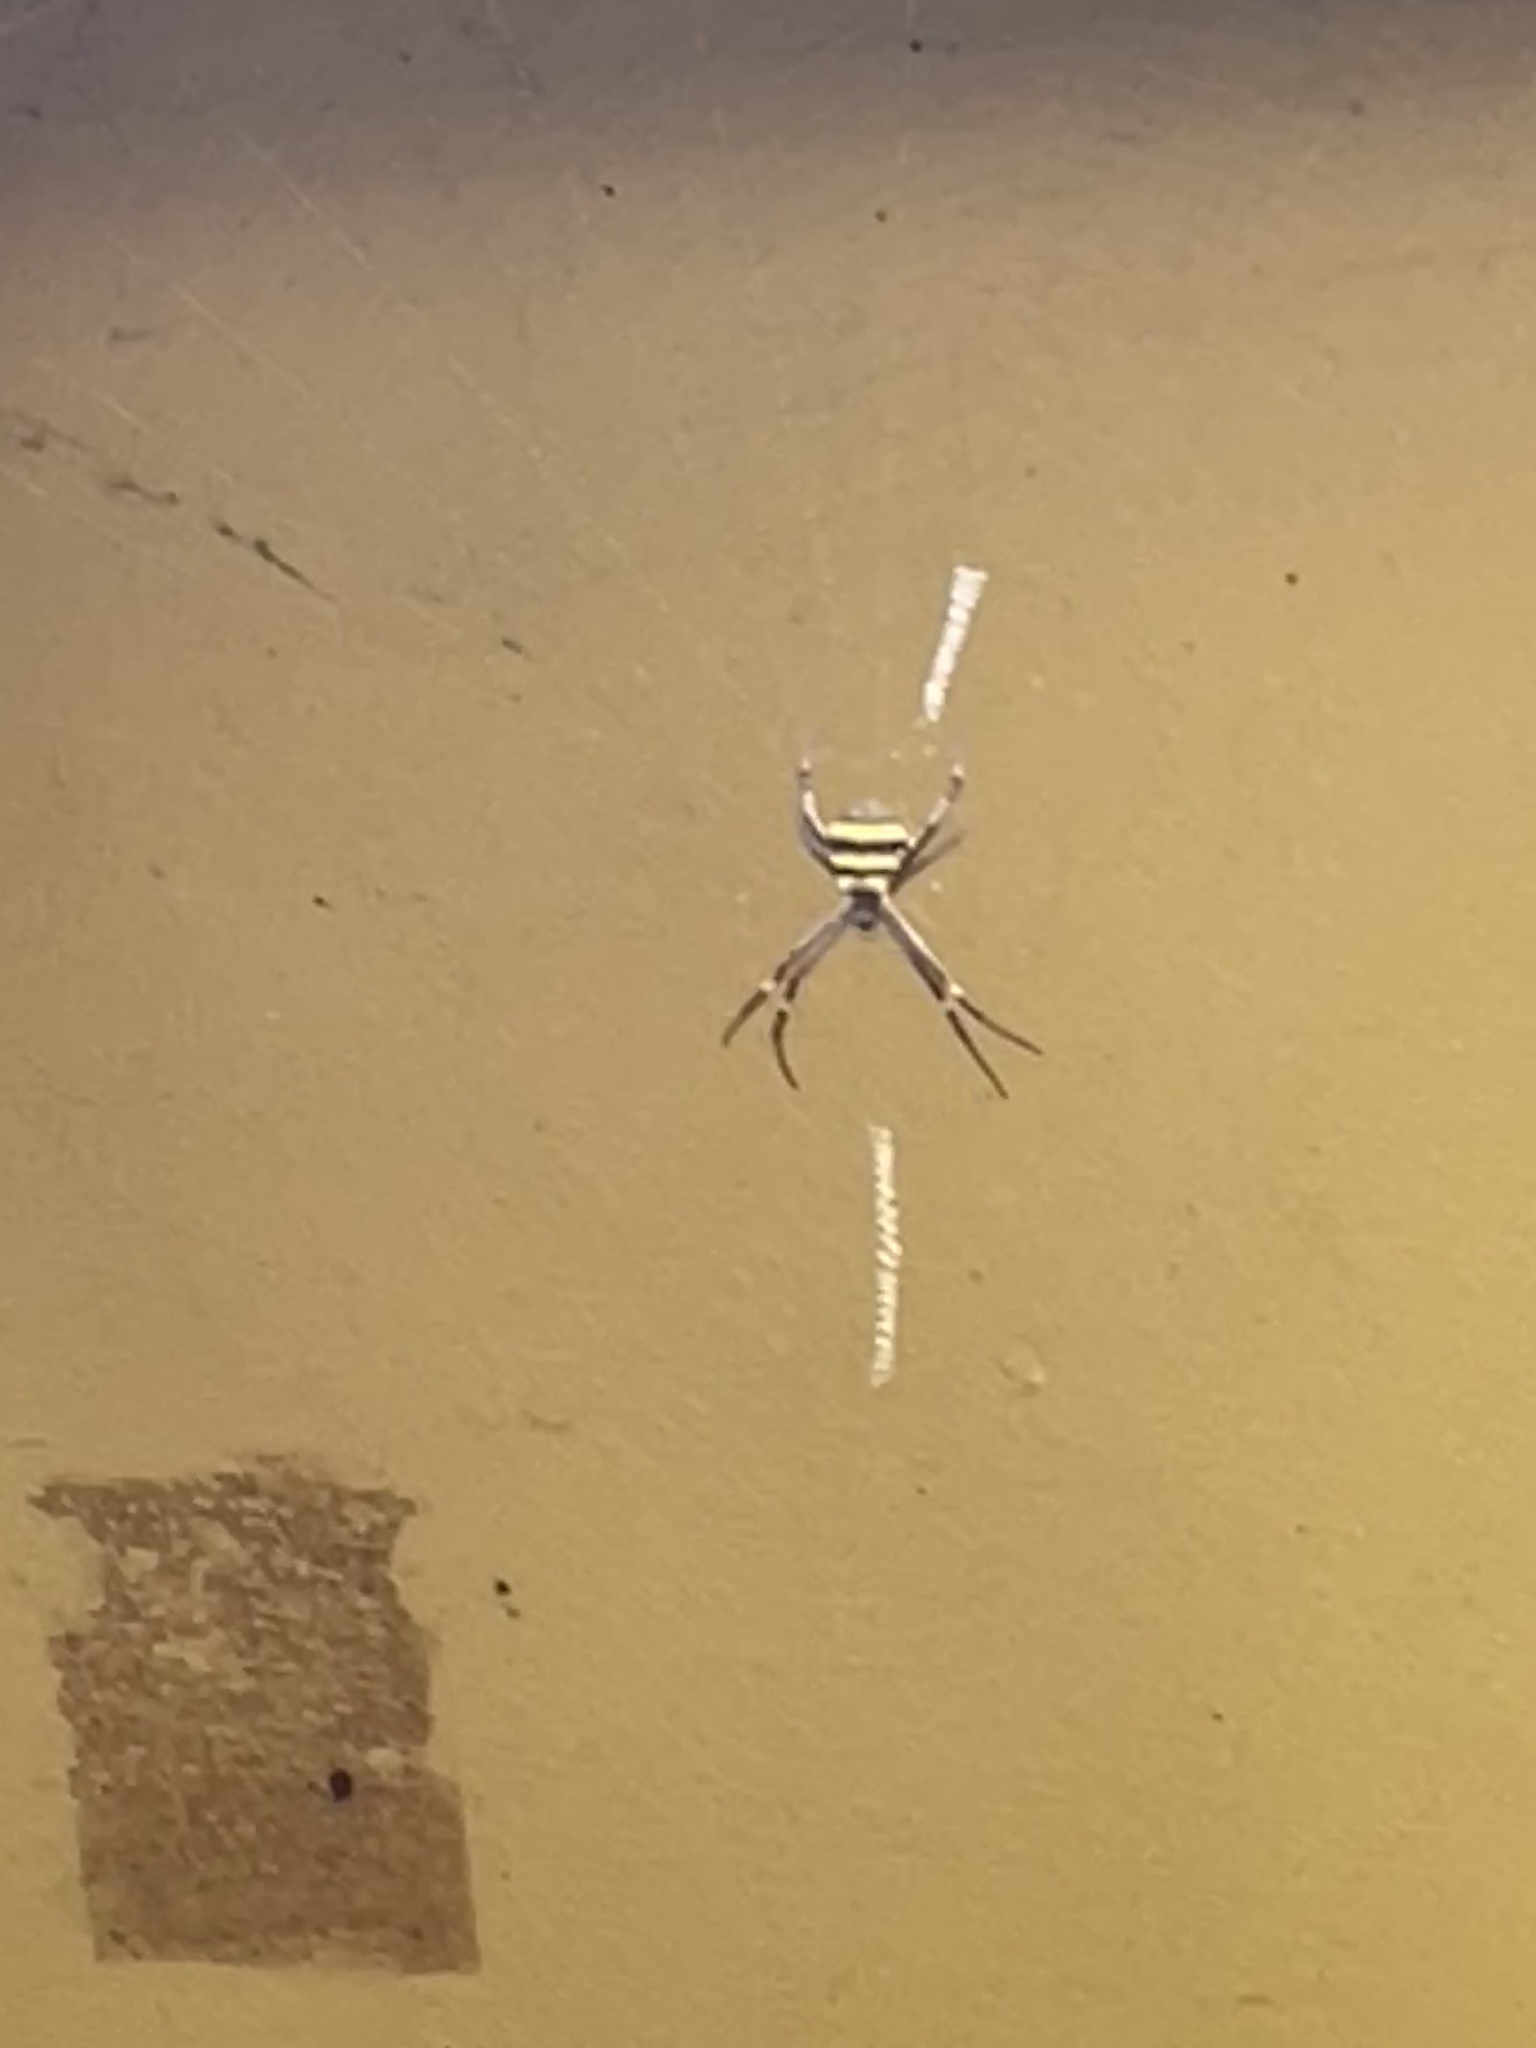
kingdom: Animalia
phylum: Arthropoda
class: Arachnida
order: Araneae
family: Araneidae
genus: Argiope
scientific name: Argiope keyserlingi
